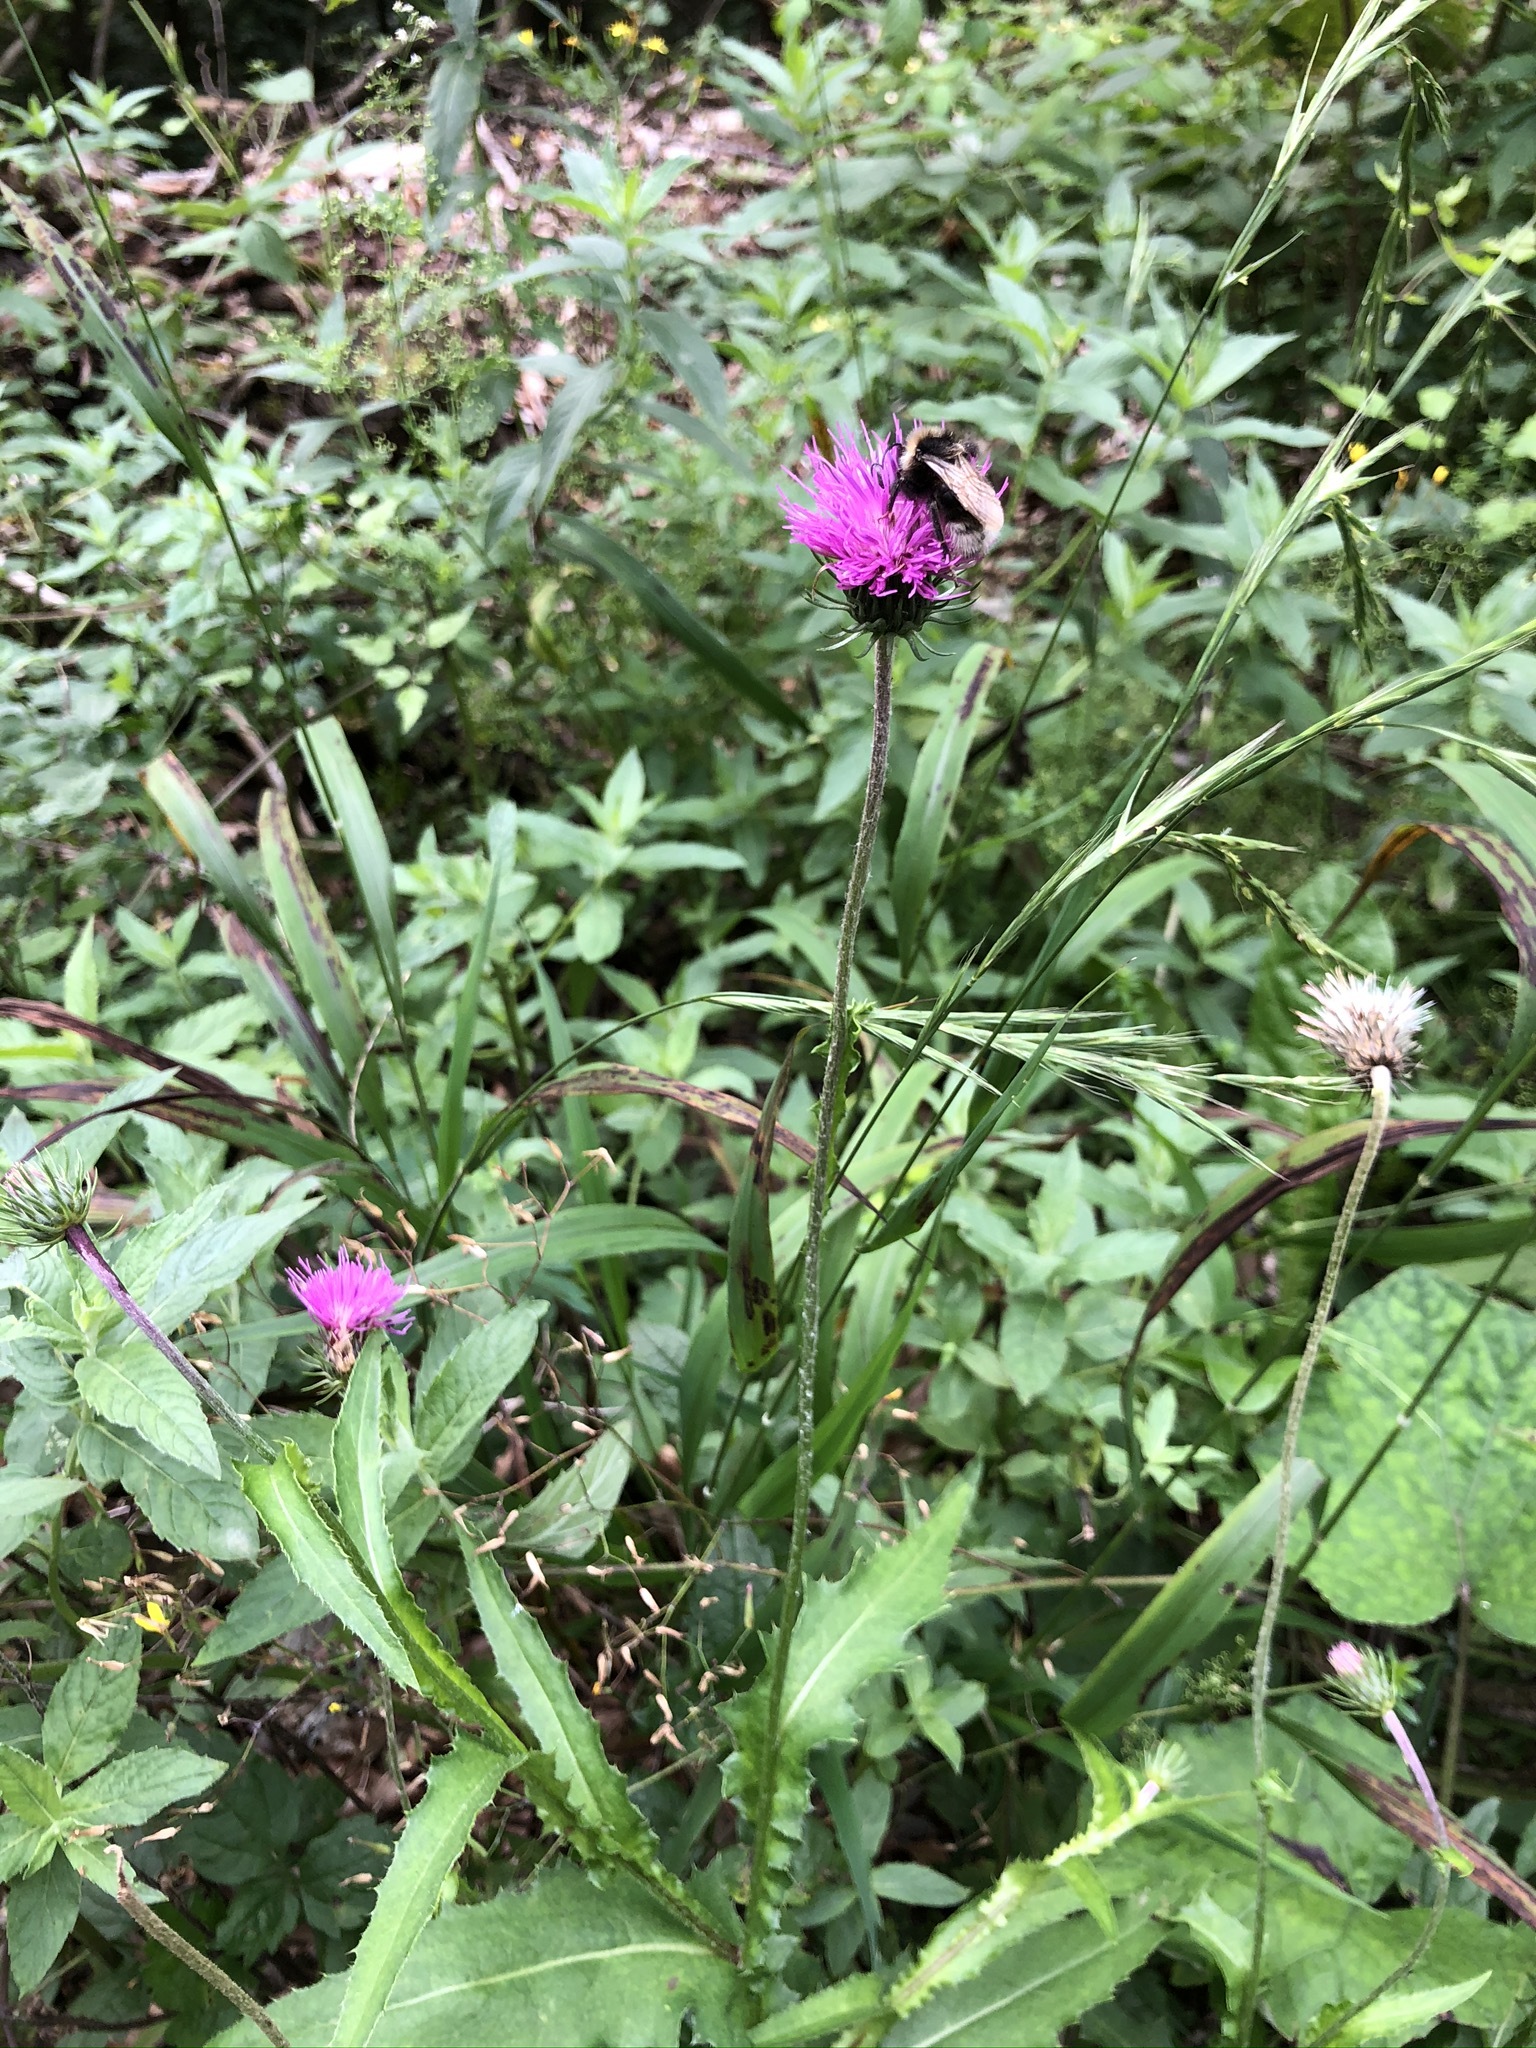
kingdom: Plantae
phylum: Tracheophyta
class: Magnoliopsida
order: Asterales
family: Asteraceae
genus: Carduus
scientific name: Carduus defloratus
